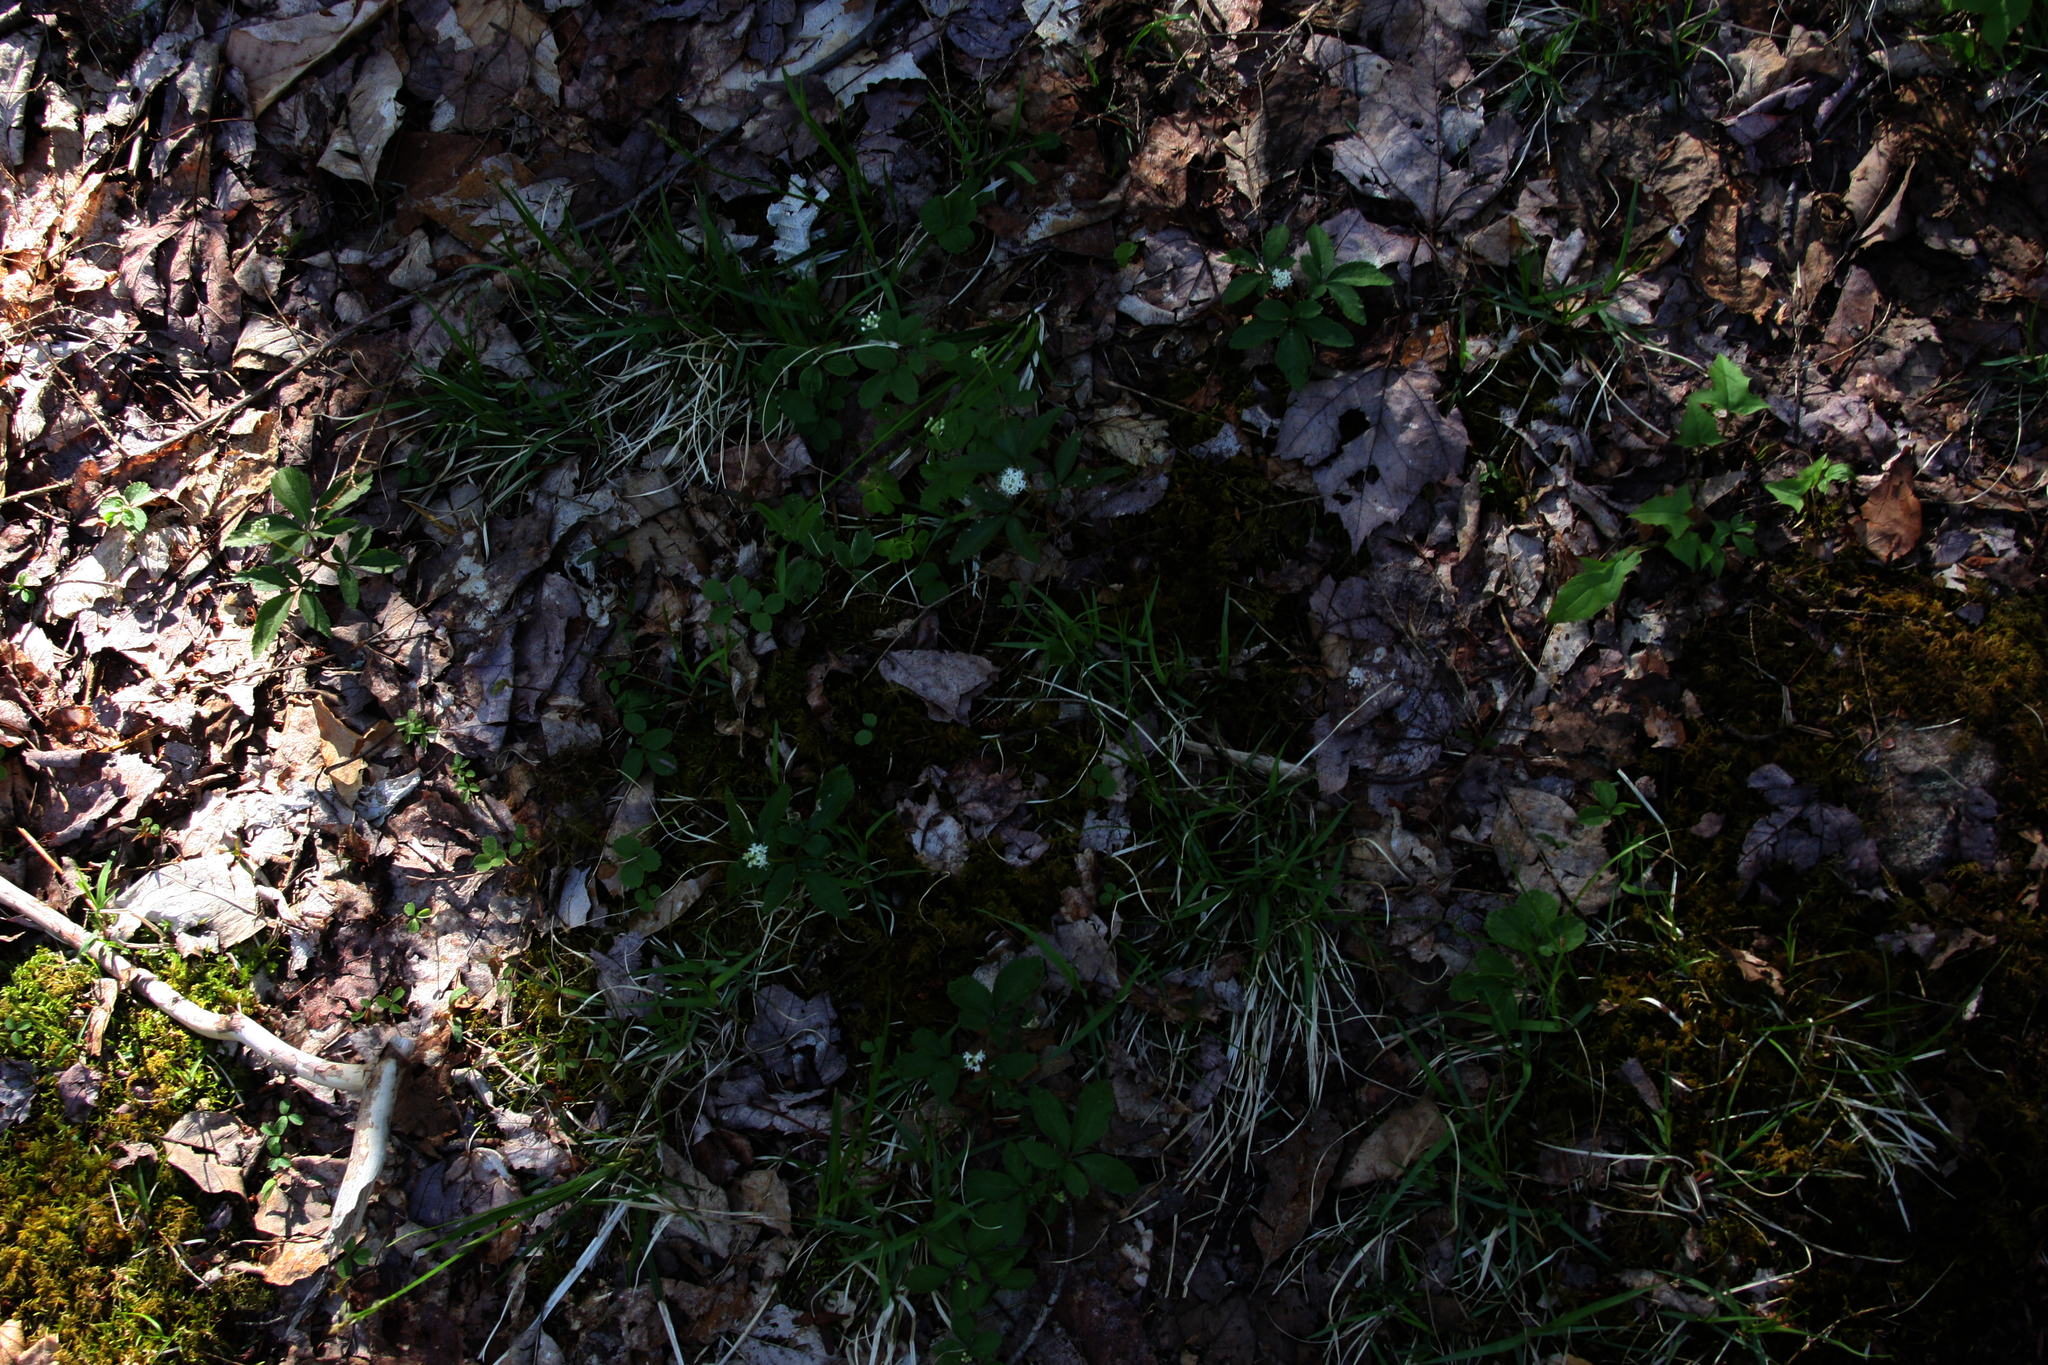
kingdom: Plantae
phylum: Tracheophyta
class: Magnoliopsida
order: Apiales
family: Araliaceae
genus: Panax
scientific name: Panax trifolius
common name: Dwarf ginseng
